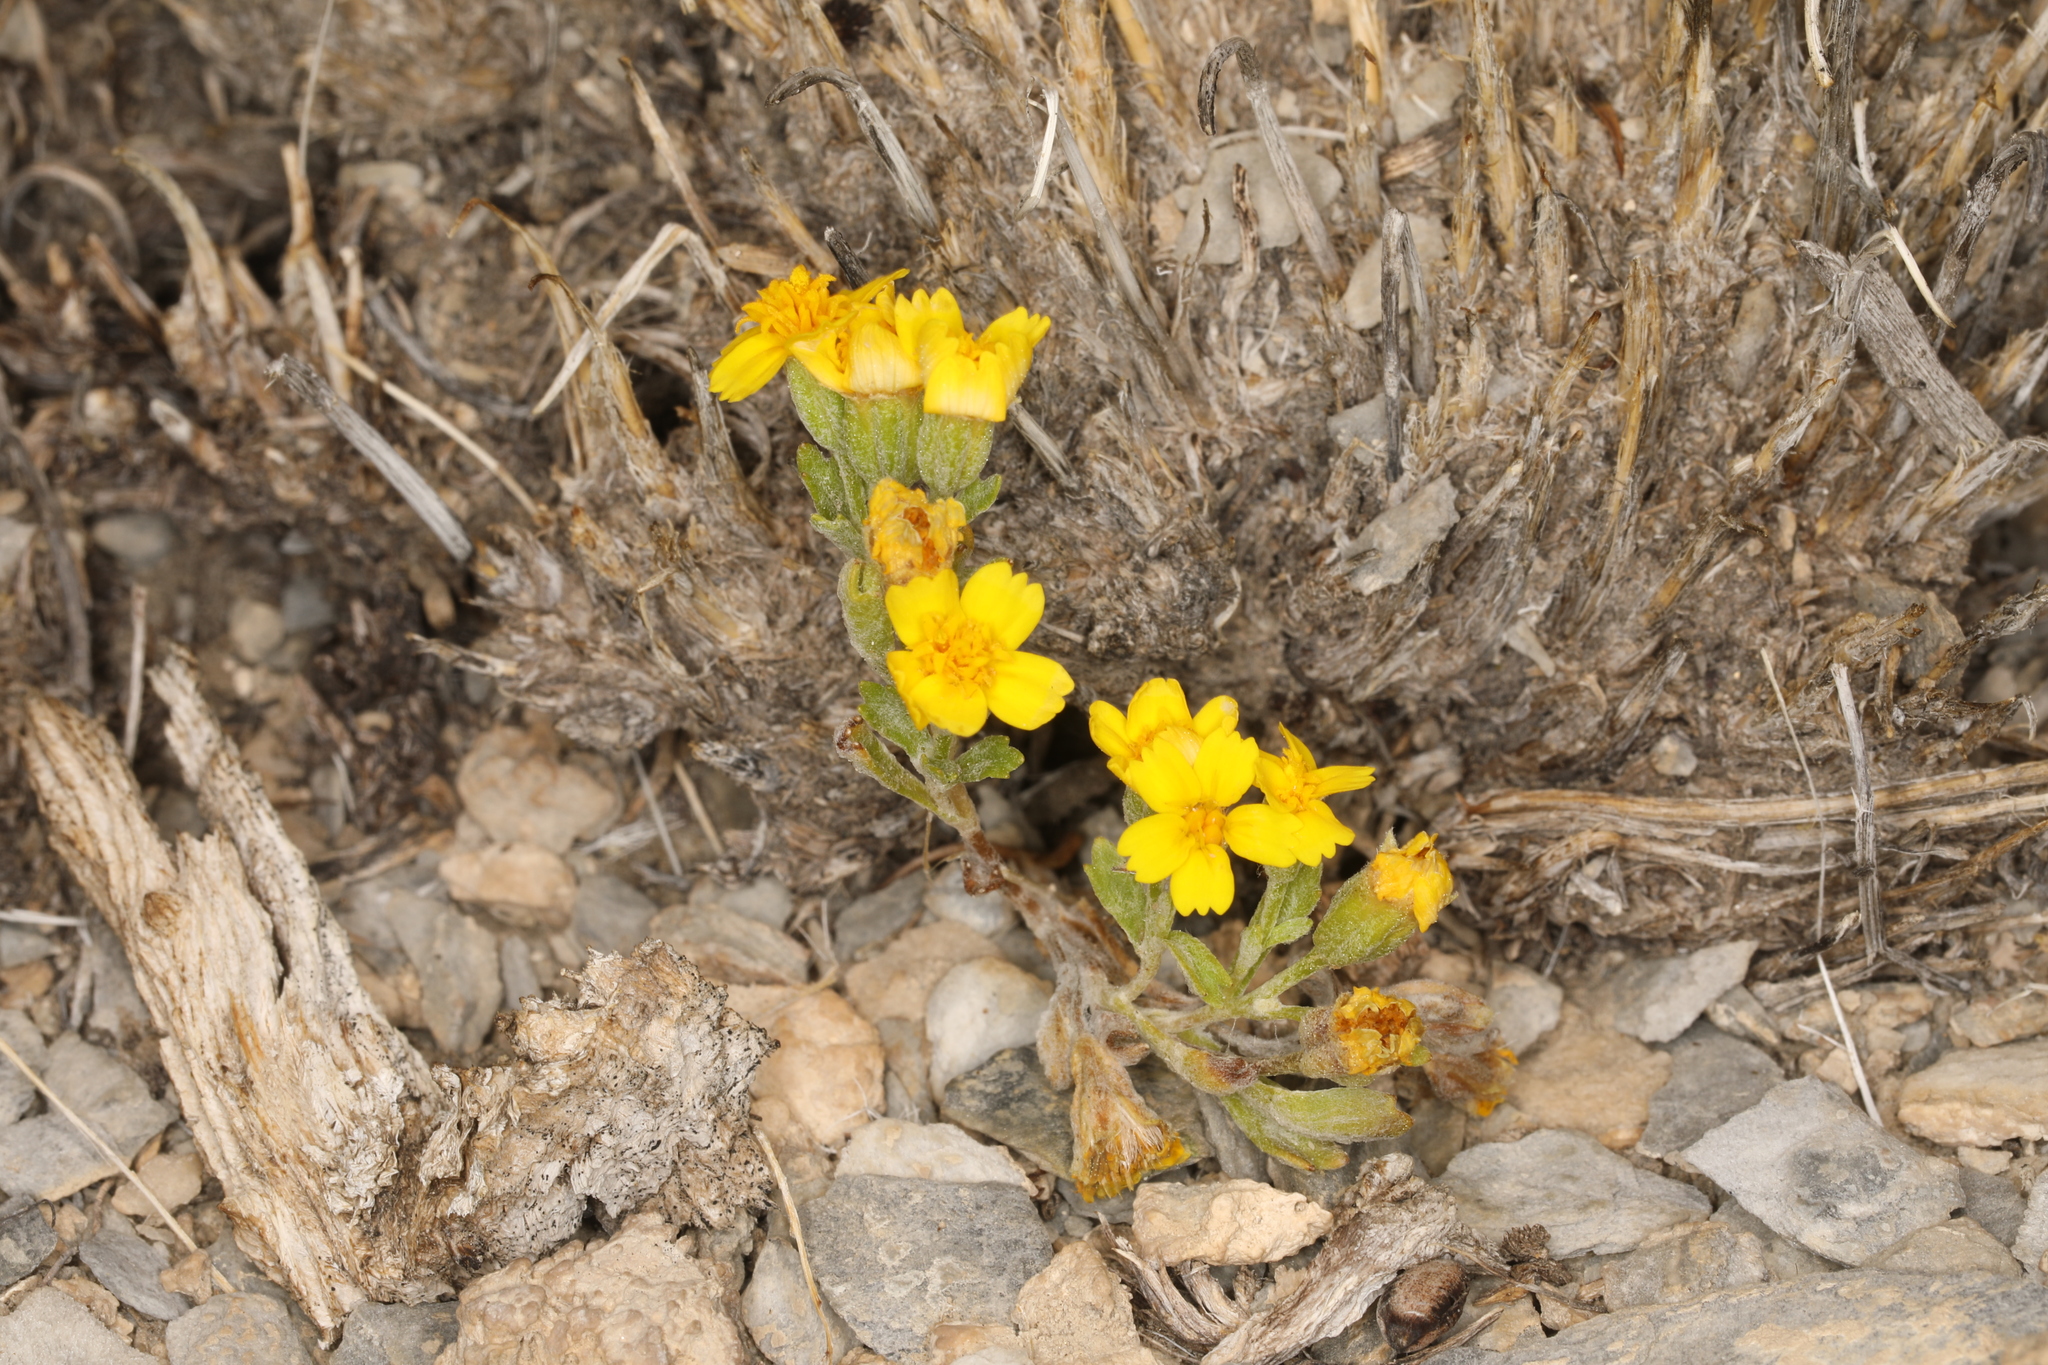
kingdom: Plantae
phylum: Tracheophyta
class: Magnoliopsida
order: Asterales
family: Asteraceae
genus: Syntrichopappus
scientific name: Syntrichopappus fremontii
